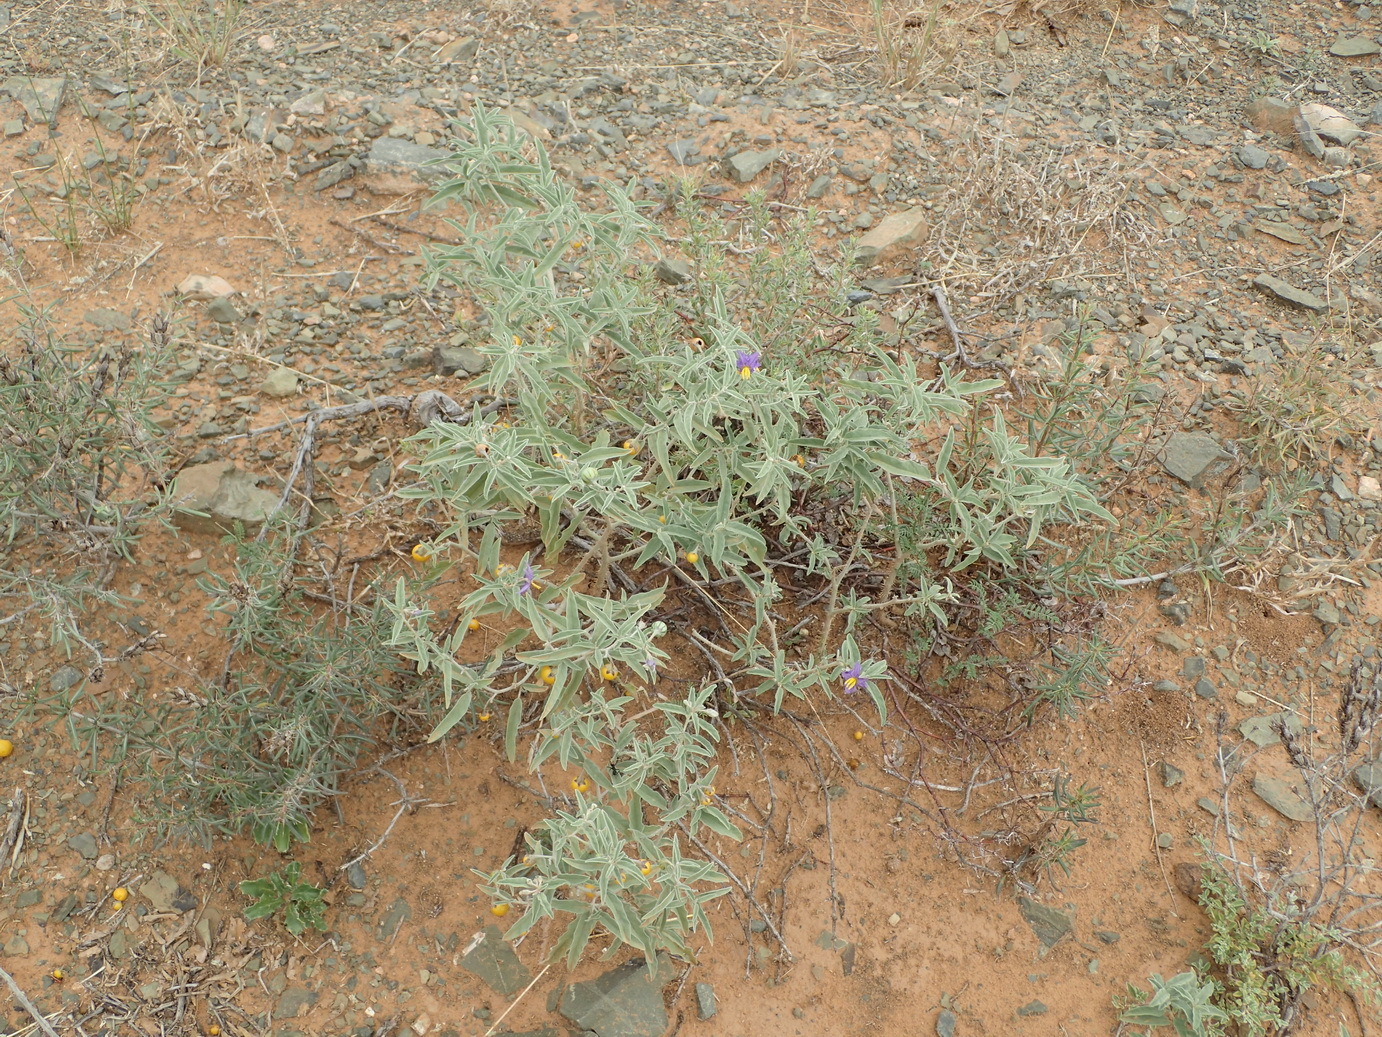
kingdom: Plantae
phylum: Tracheophyta
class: Magnoliopsida
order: Solanales
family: Solanaceae
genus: Solanum
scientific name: Solanum elaeagnifolium
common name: Silverleaf nightshade
